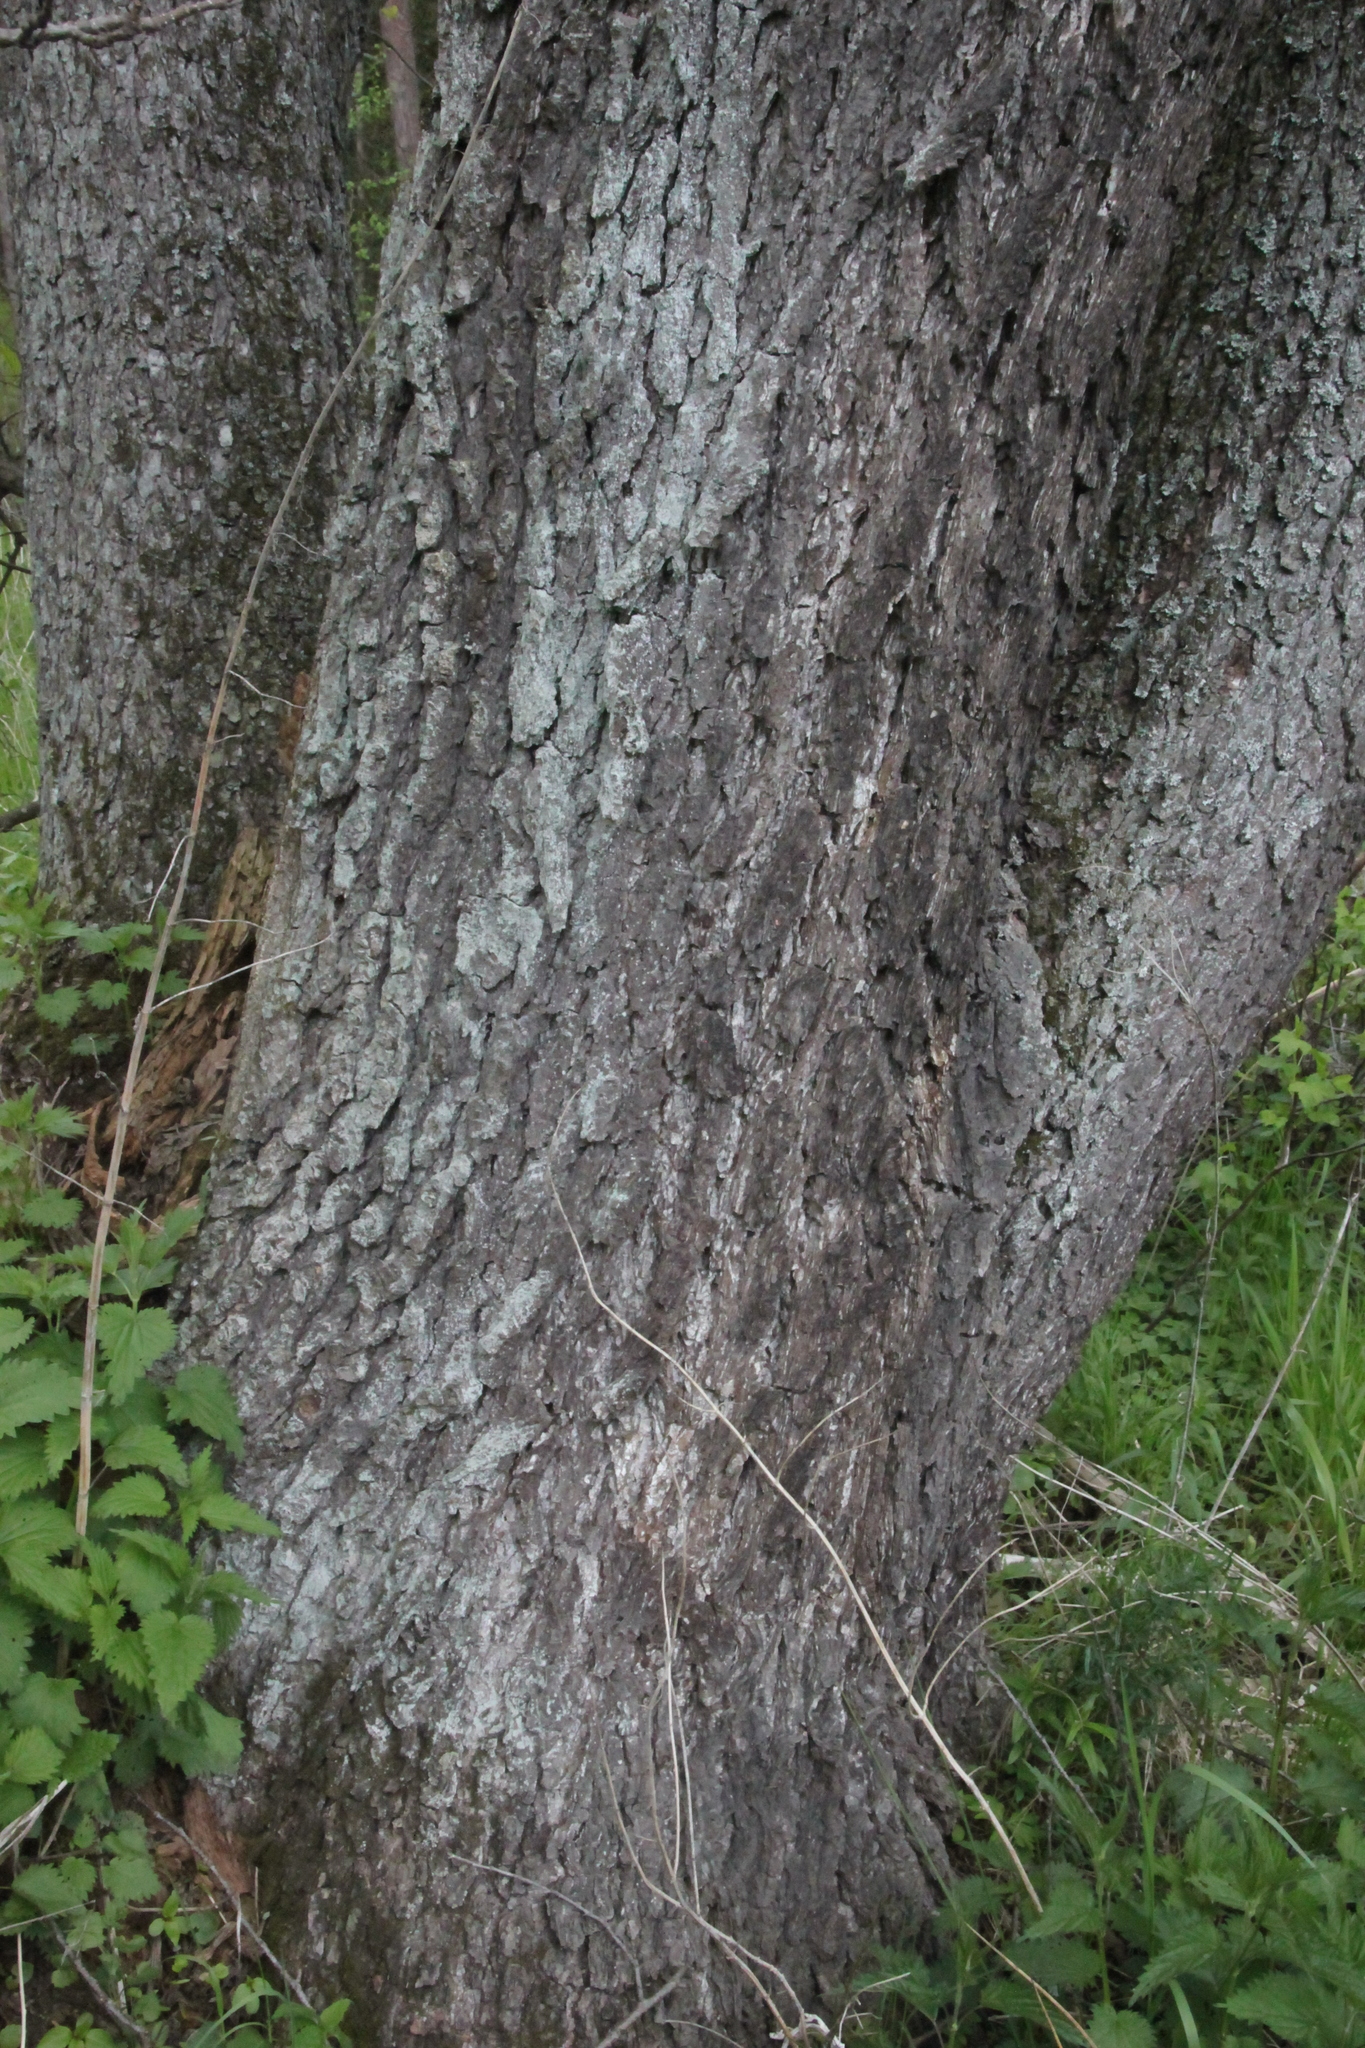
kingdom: Plantae
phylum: Tracheophyta
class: Magnoliopsida
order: Fagales
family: Betulaceae
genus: Alnus
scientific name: Alnus glutinosa
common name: Black alder
